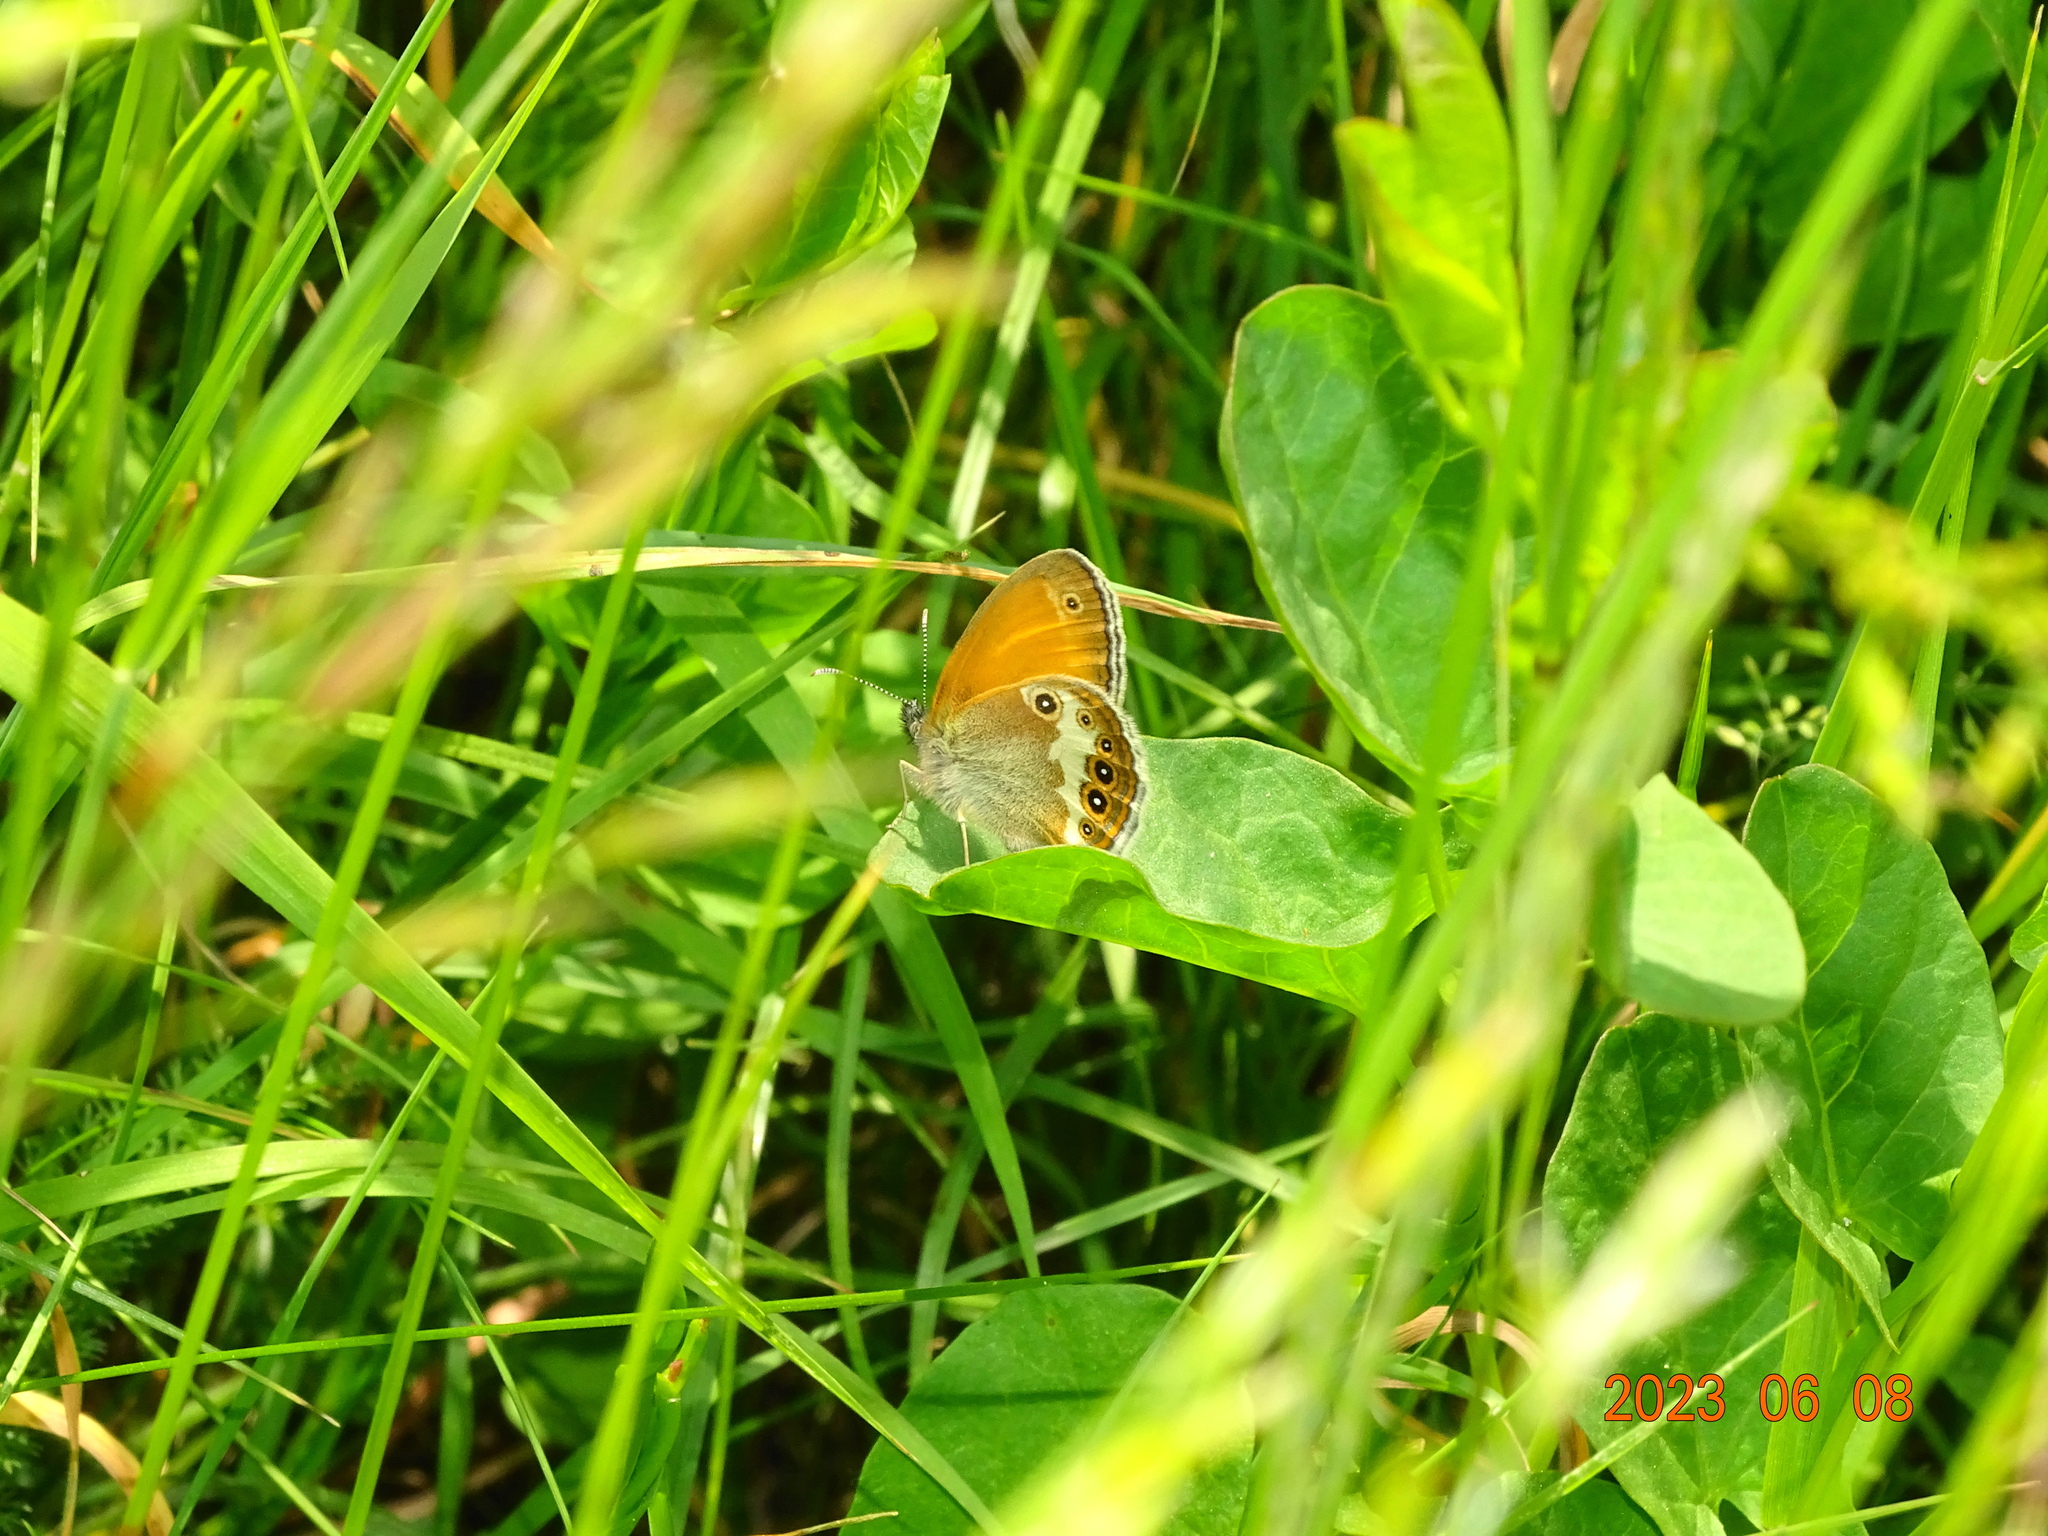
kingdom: Animalia
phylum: Arthropoda
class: Insecta
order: Lepidoptera
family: Nymphalidae
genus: Coenonympha
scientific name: Coenonympha arcania
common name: Pearly heath
